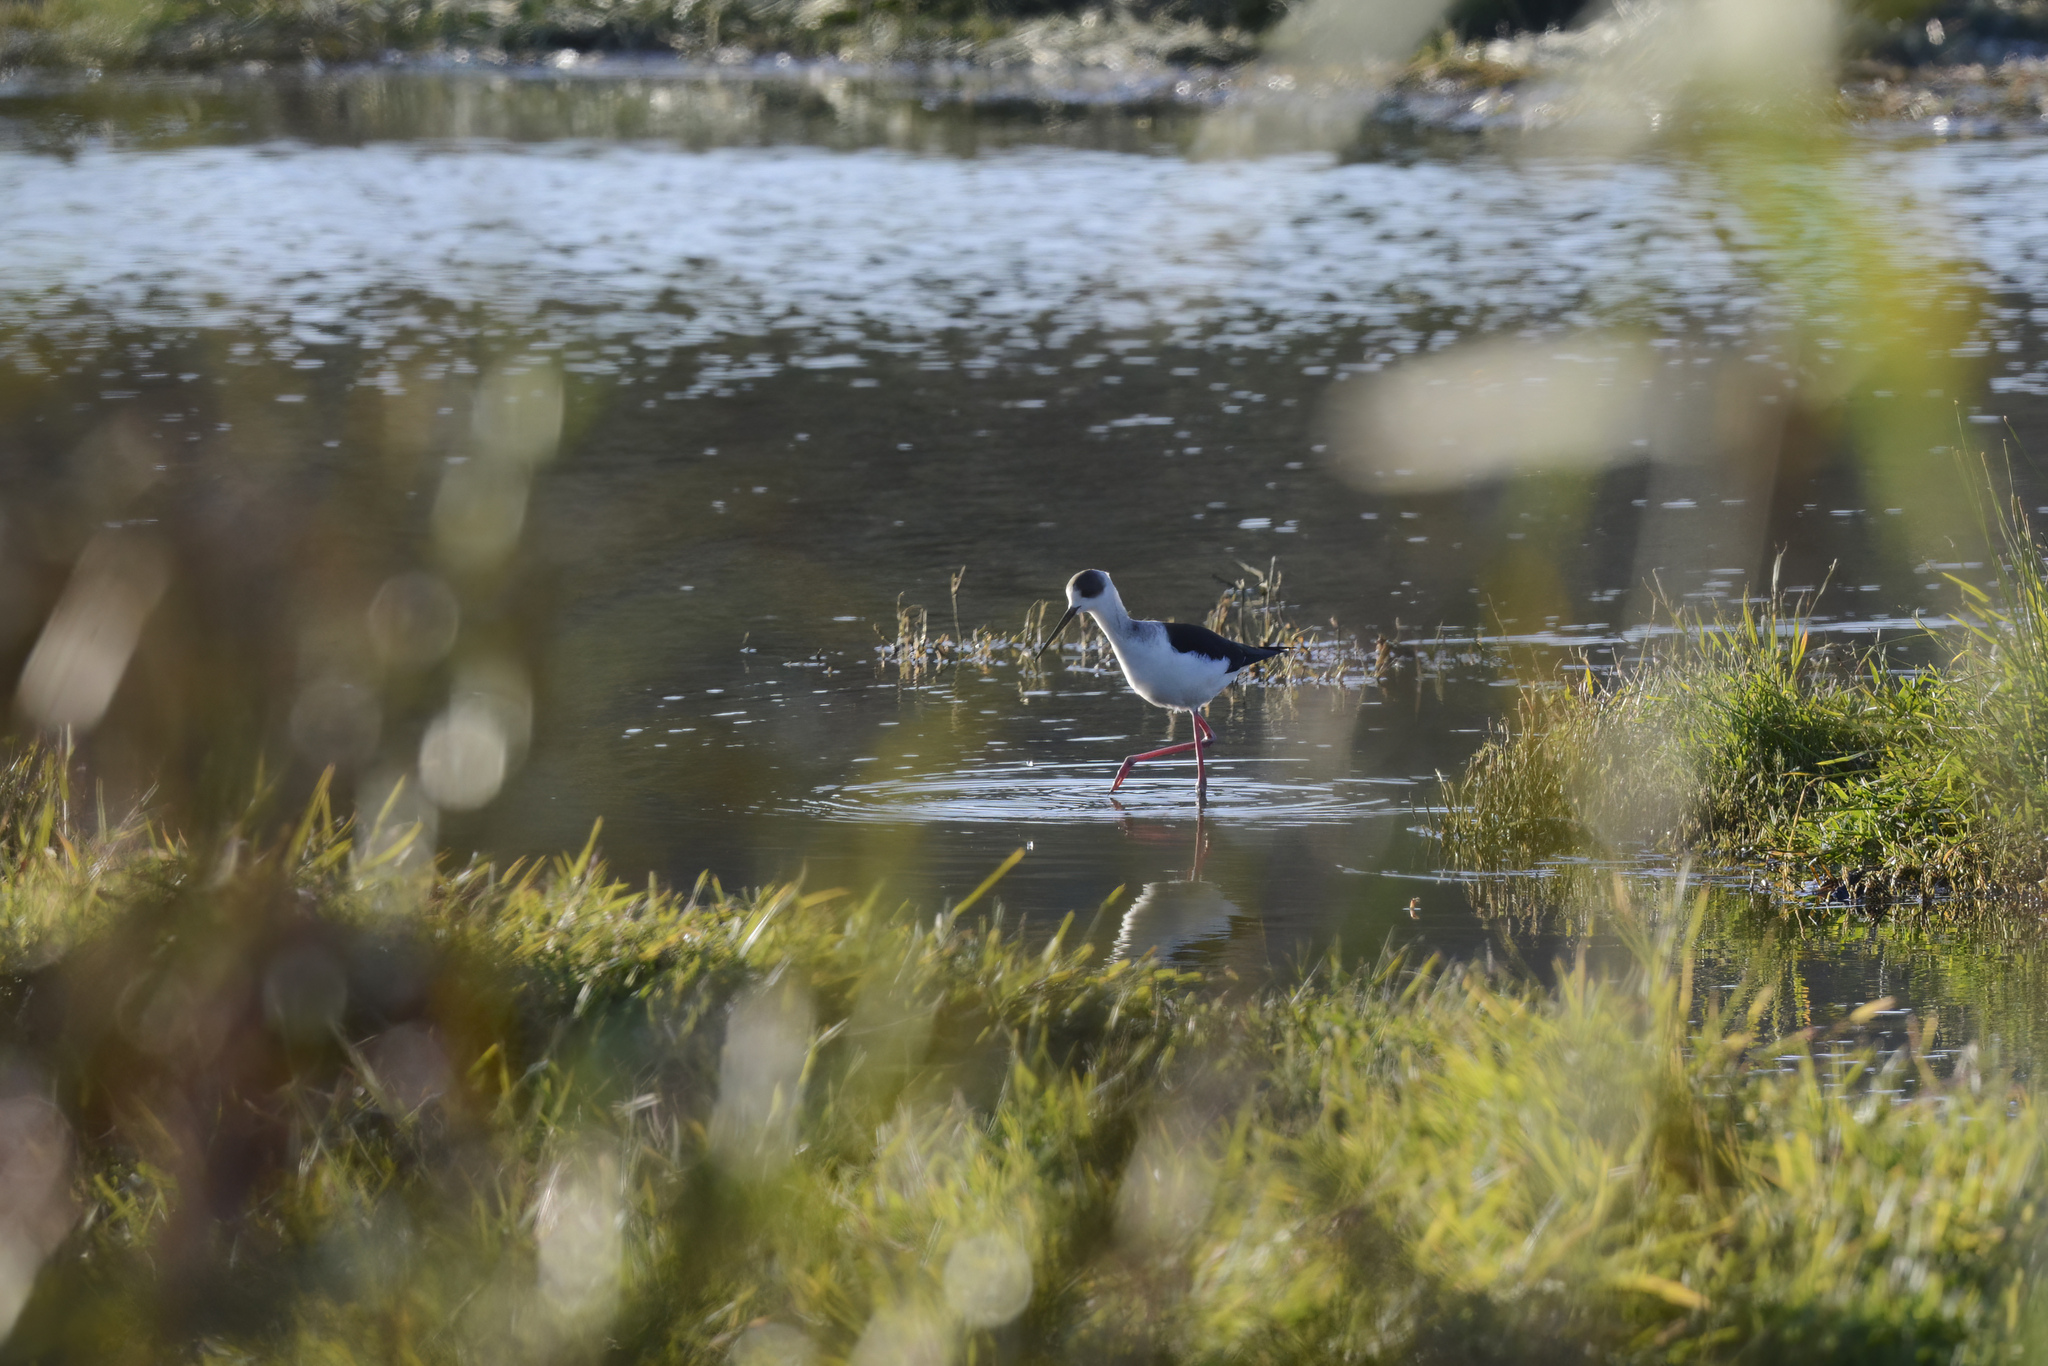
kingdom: Animalia
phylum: Chordata
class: Aves
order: Charadriiformes
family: Recurvirostridae
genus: Himantopus
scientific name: Himantopus leucocephalus
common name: White-headed stilt
